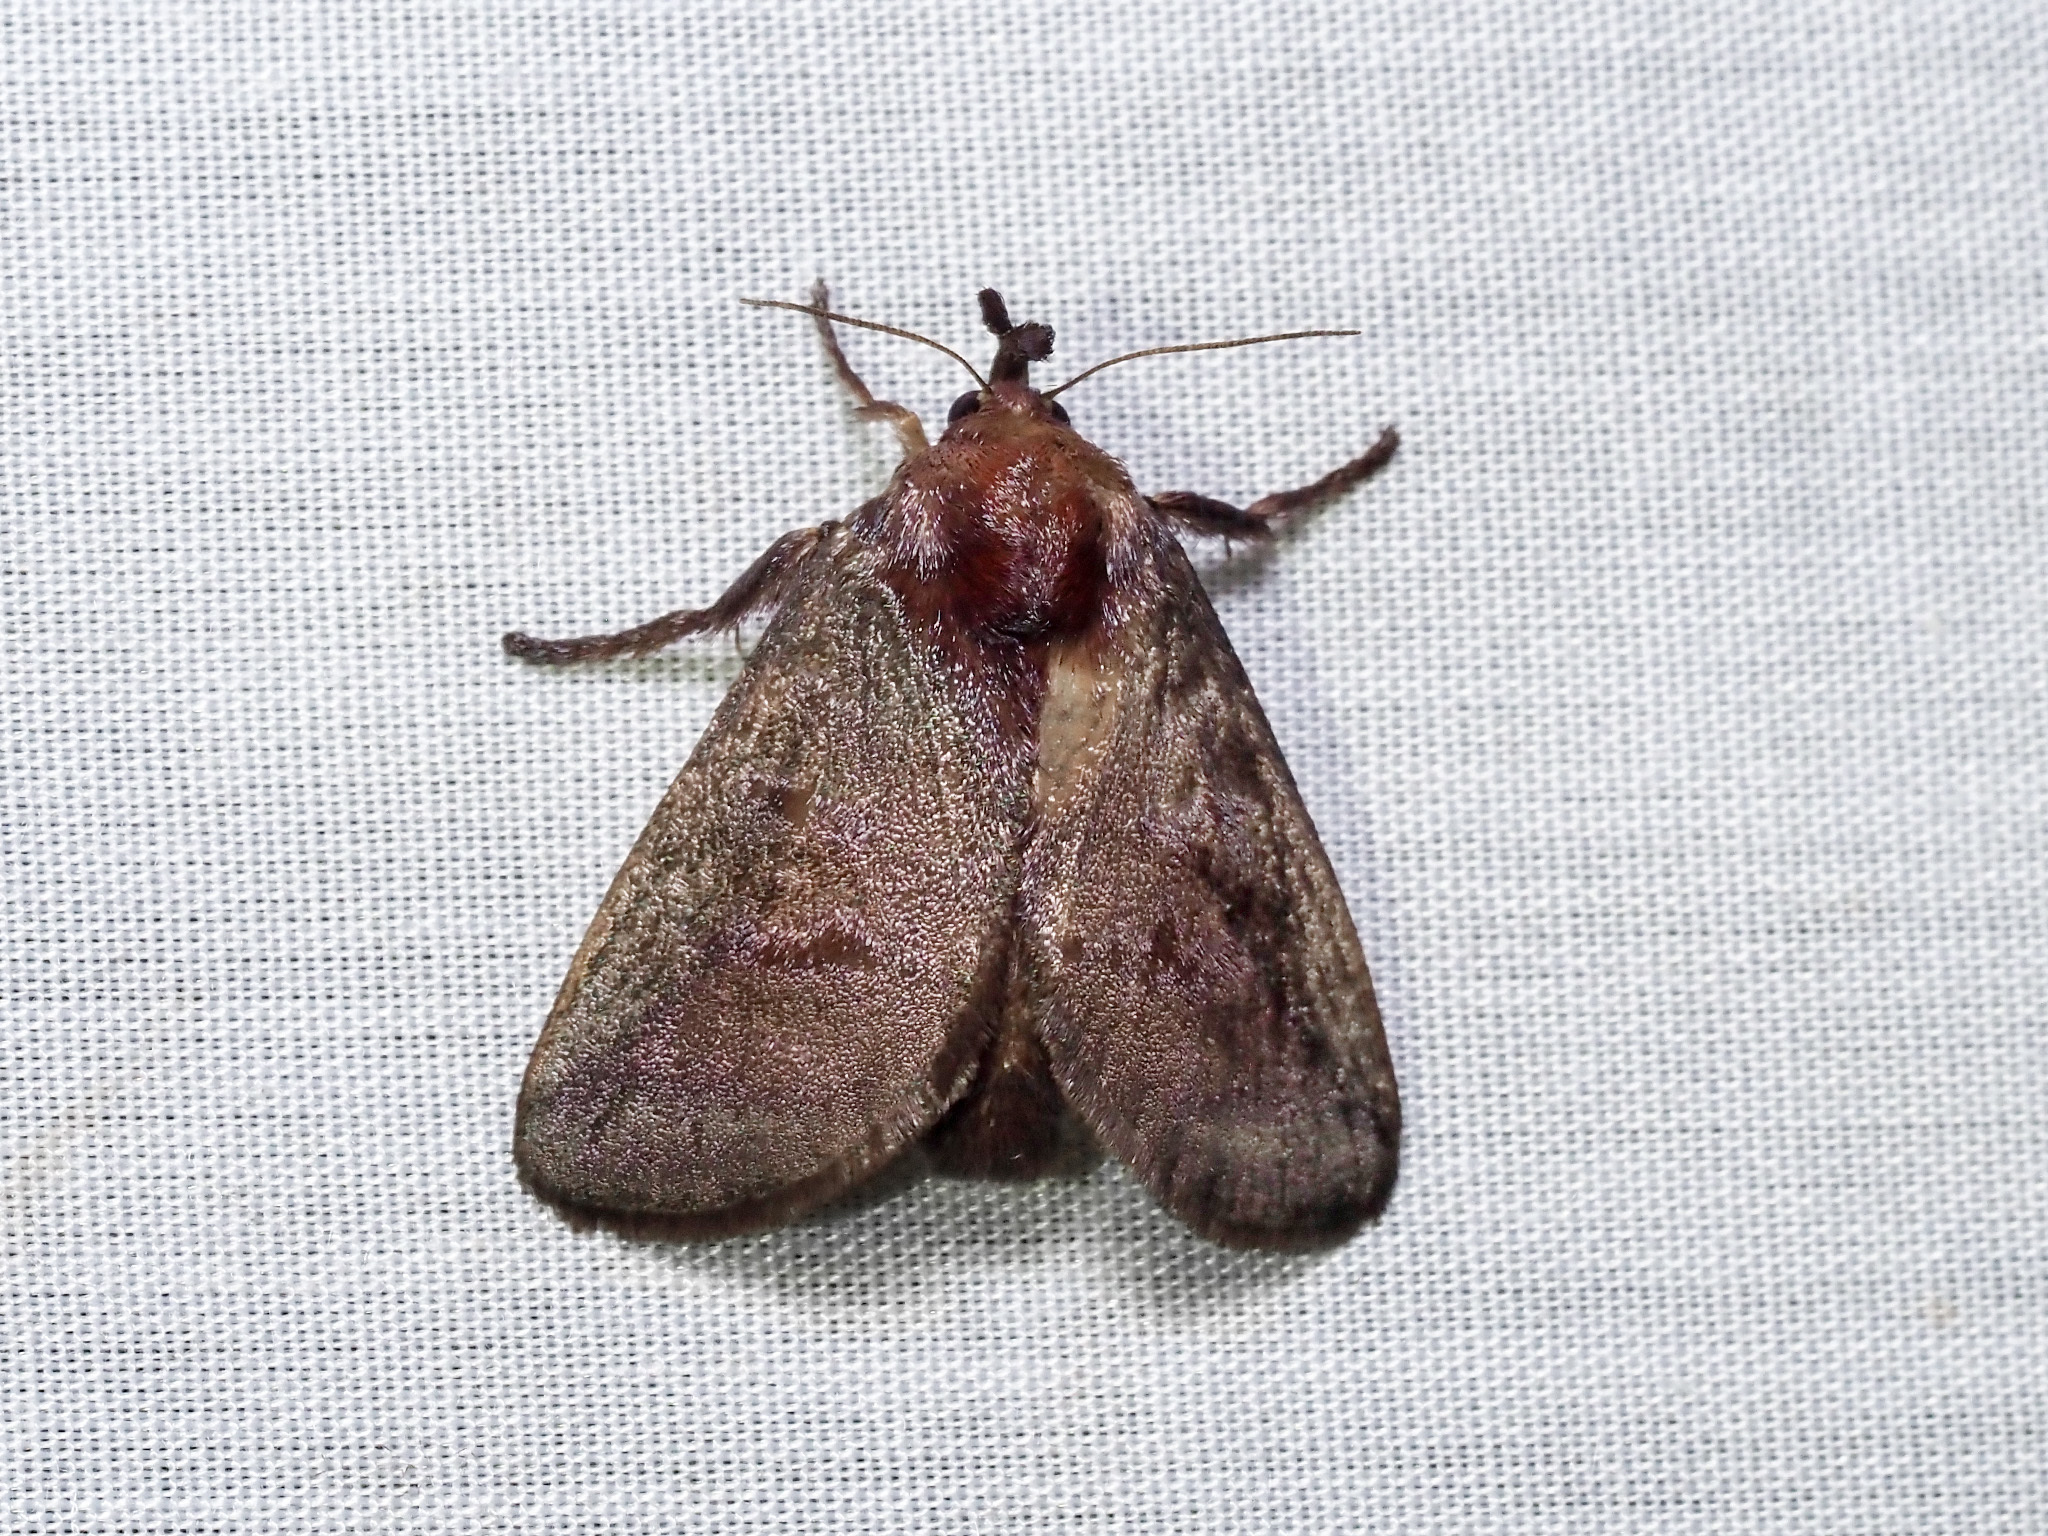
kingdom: Animalia
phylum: Arthropoda
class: Insecta
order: Lepidoptera
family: Limacodidae
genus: Hyphorma
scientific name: Hyphorma margaritacea
